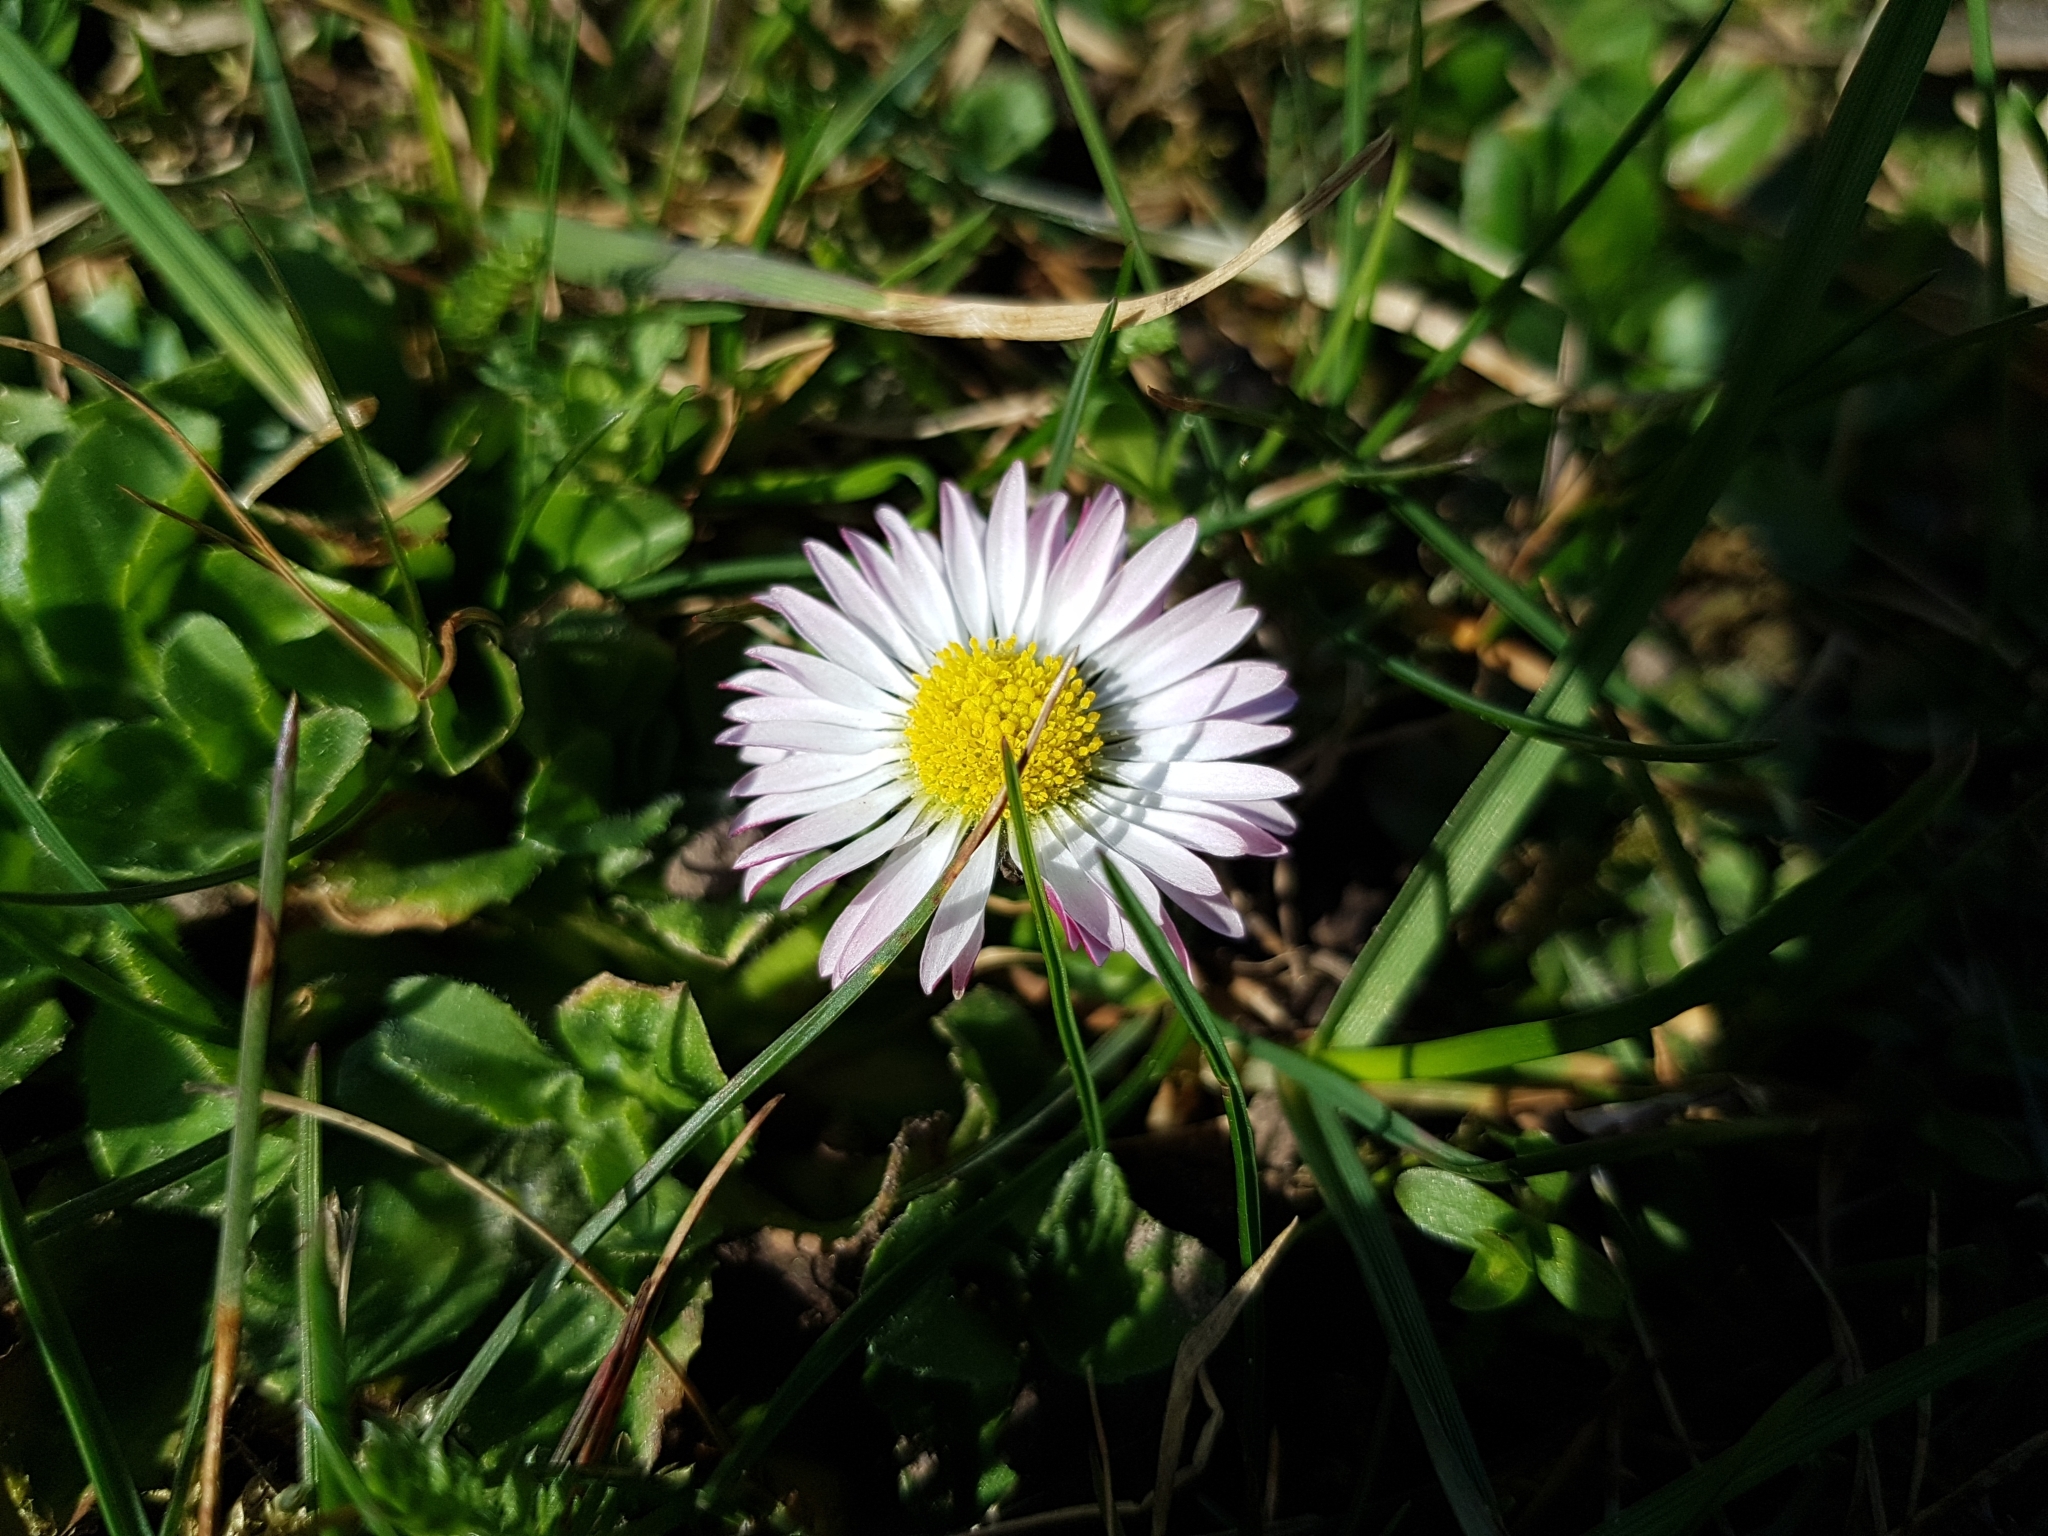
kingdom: Plantae
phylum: Tracheophyta
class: Magnoliopsida
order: Asterales
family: Asteraceae
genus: Bellis
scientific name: Bellis perennis
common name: Lawndaisy
